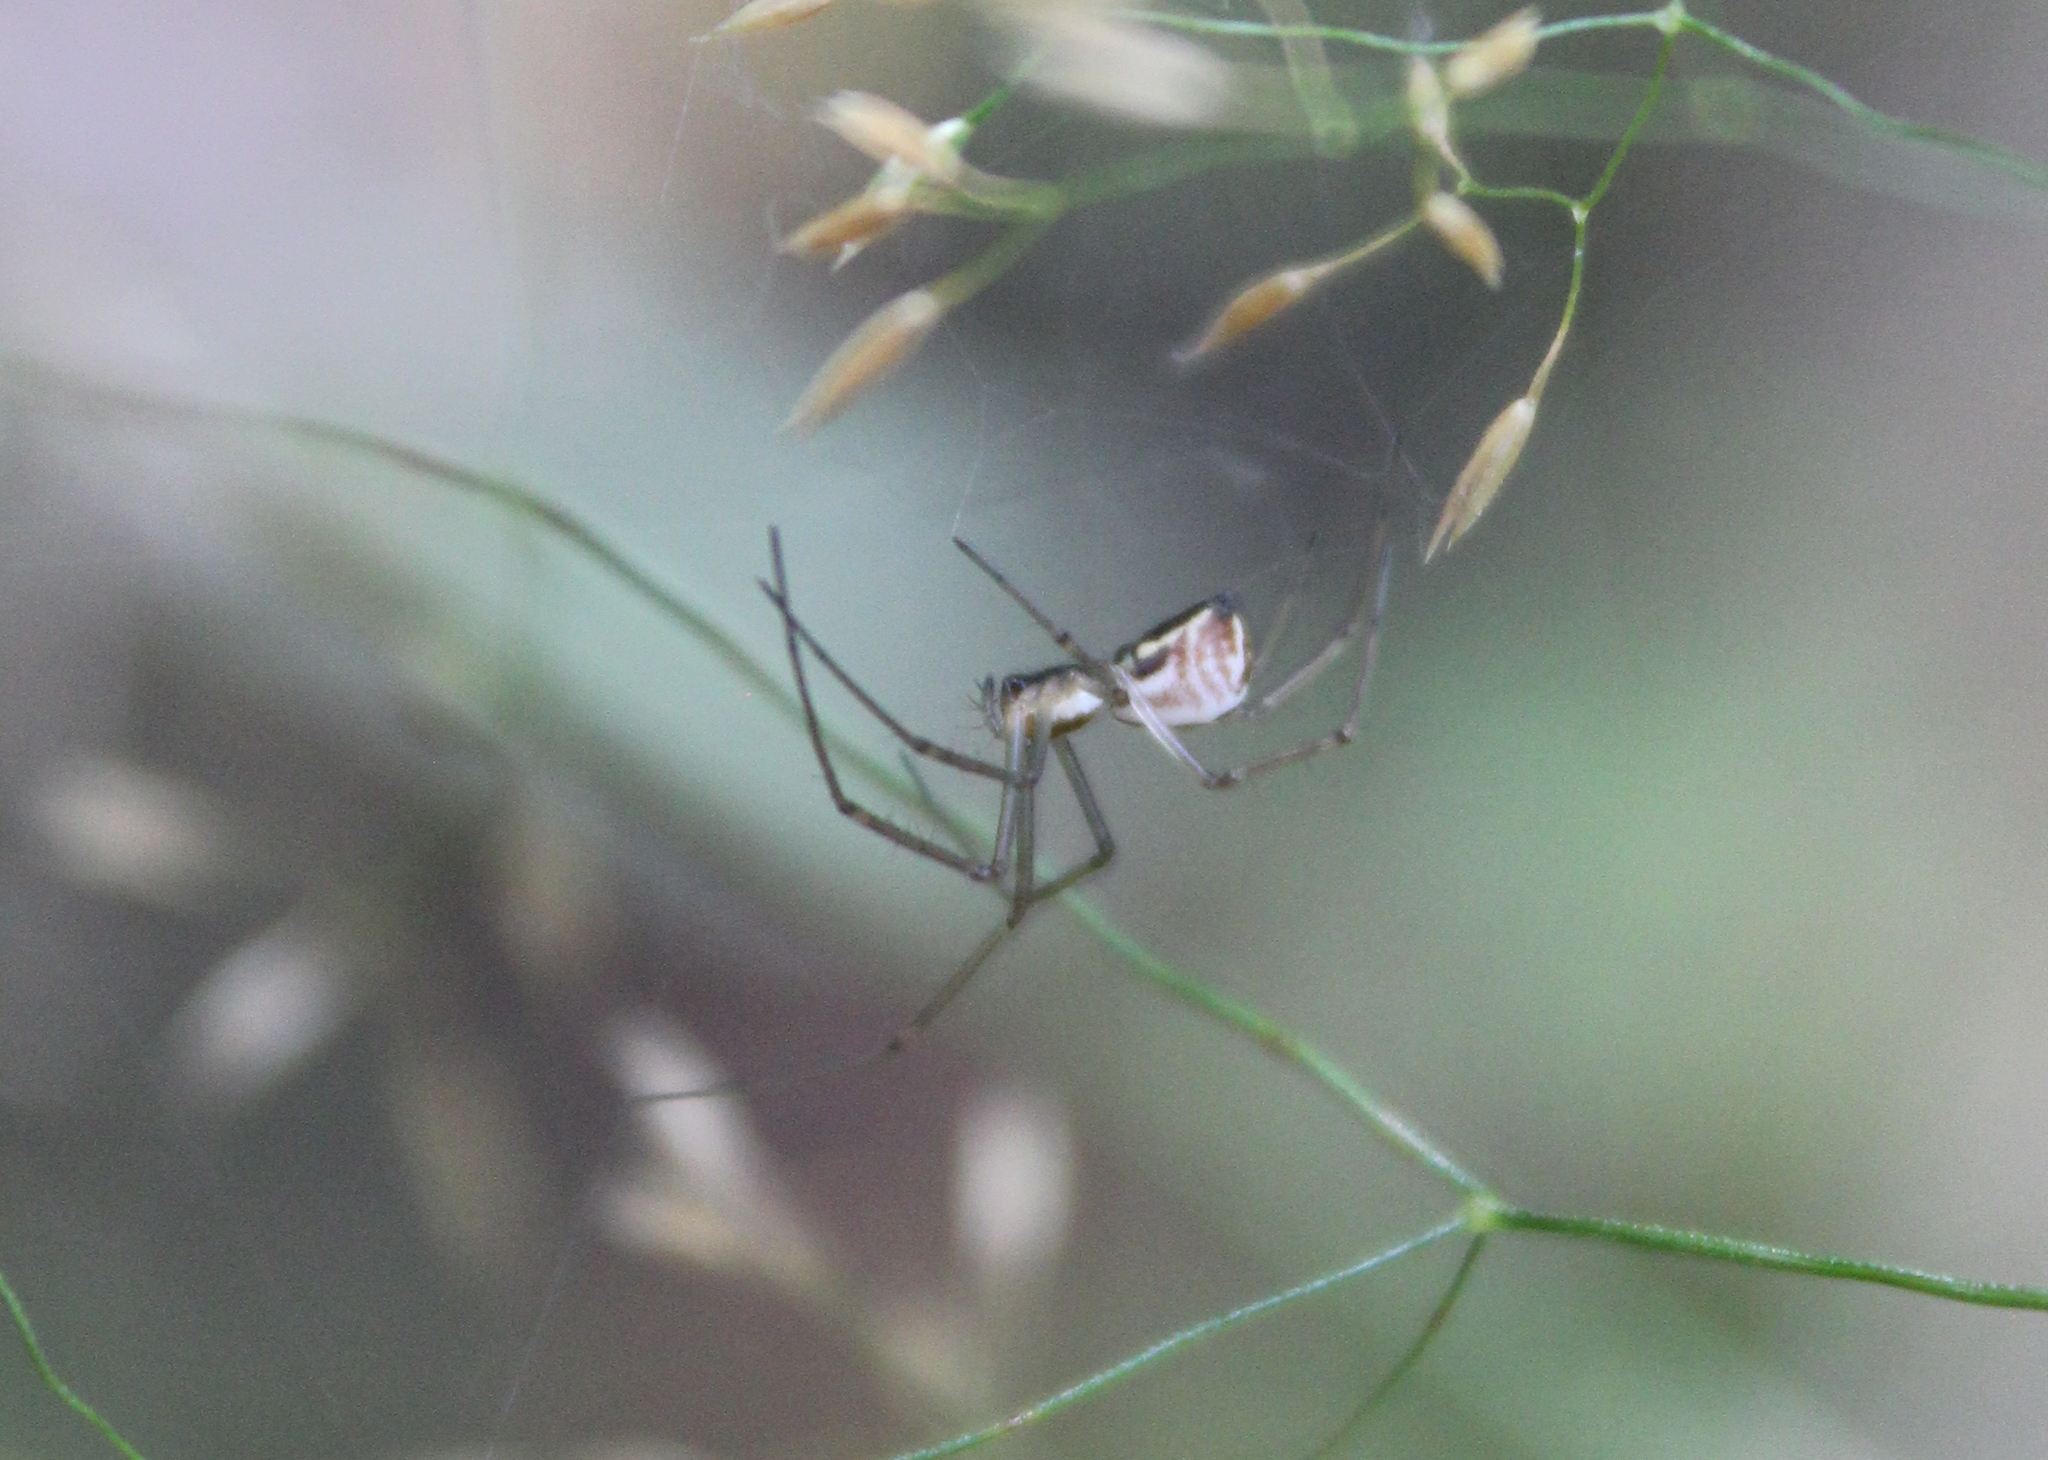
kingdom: Animalia
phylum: Arthropoda
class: Arachnida
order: Araneae
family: Linyphiidae
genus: Neriene
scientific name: Neriene radiata
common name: Filmy dome spider
